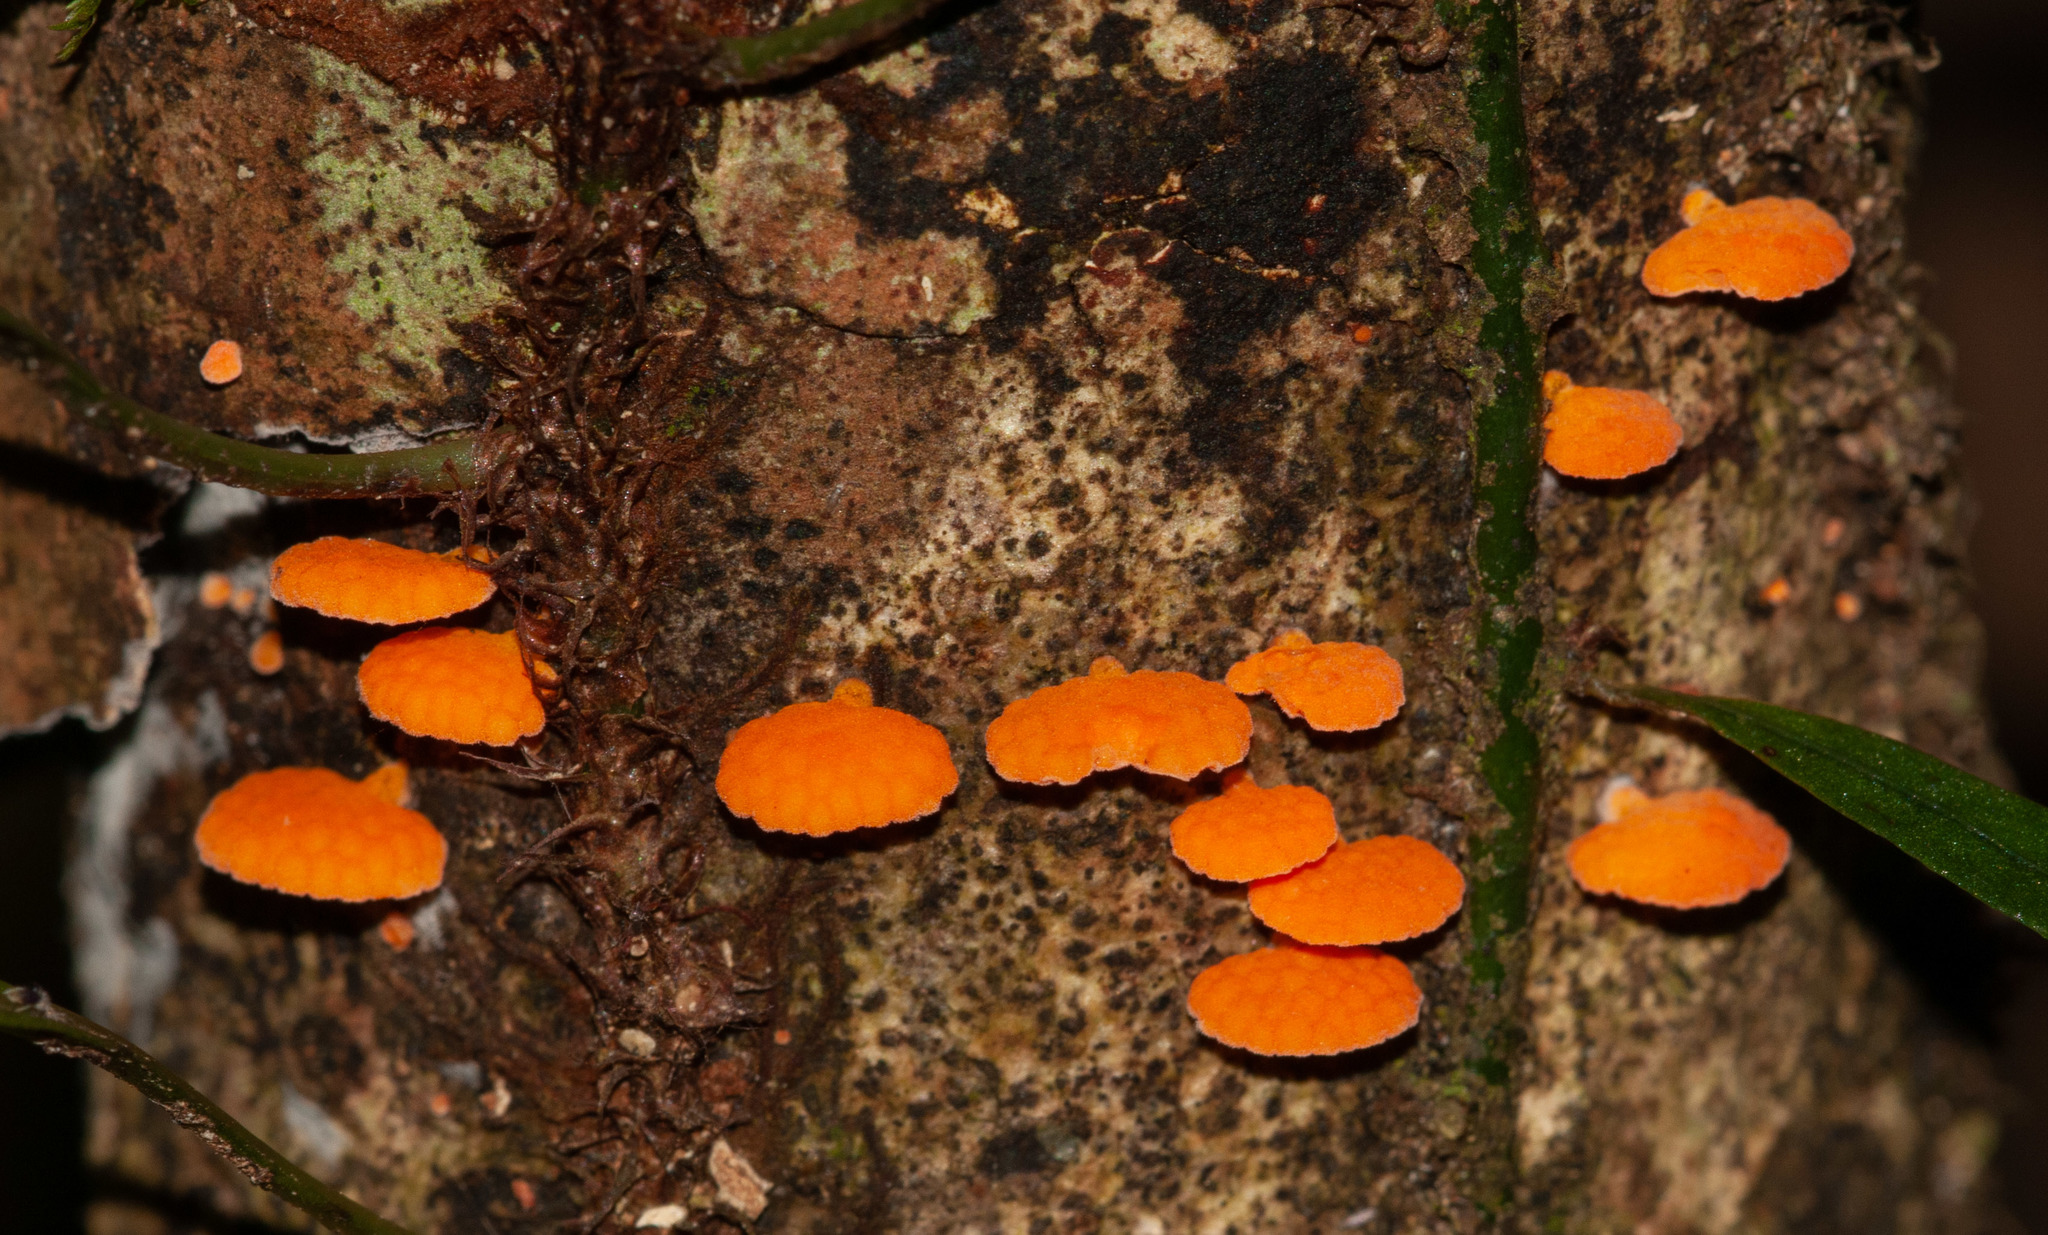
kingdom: Fungi
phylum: Basidiomycota
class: Agaricomycetes
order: Agaricales
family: Mycenaceae
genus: Favolaschia
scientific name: Favolaschia claudopus
